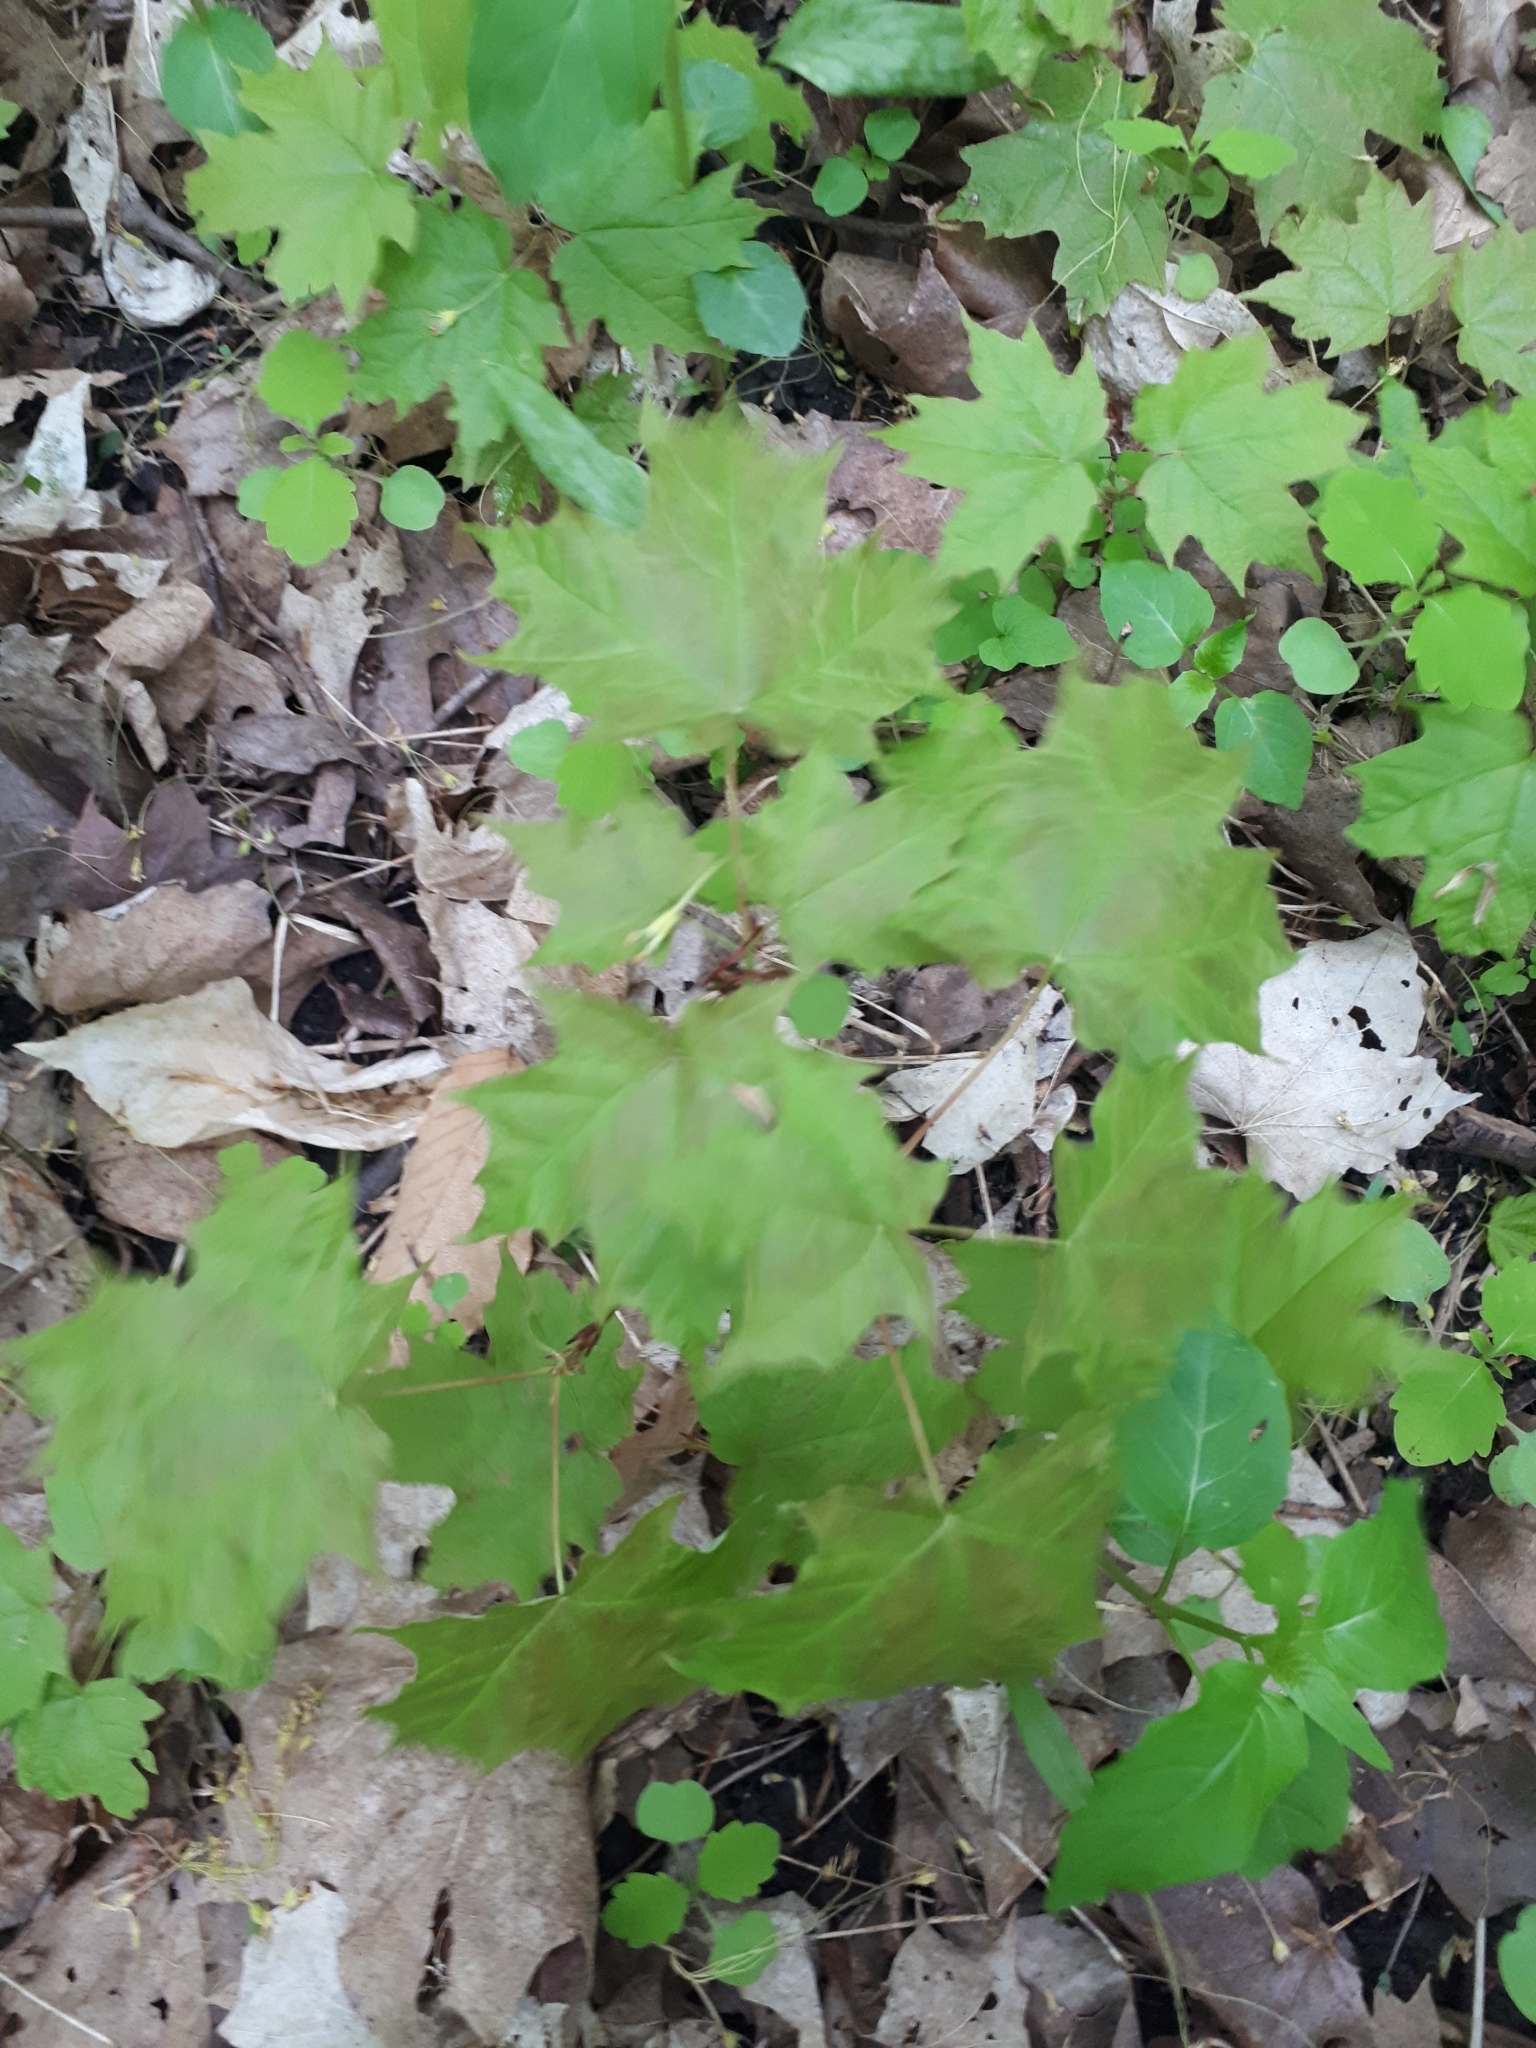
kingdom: Plantae
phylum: Tracheophyta
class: Magnoliopsida
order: Sapindales
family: Sapindaceae
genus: Acer
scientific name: Acer saccharum
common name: Sugar maple
